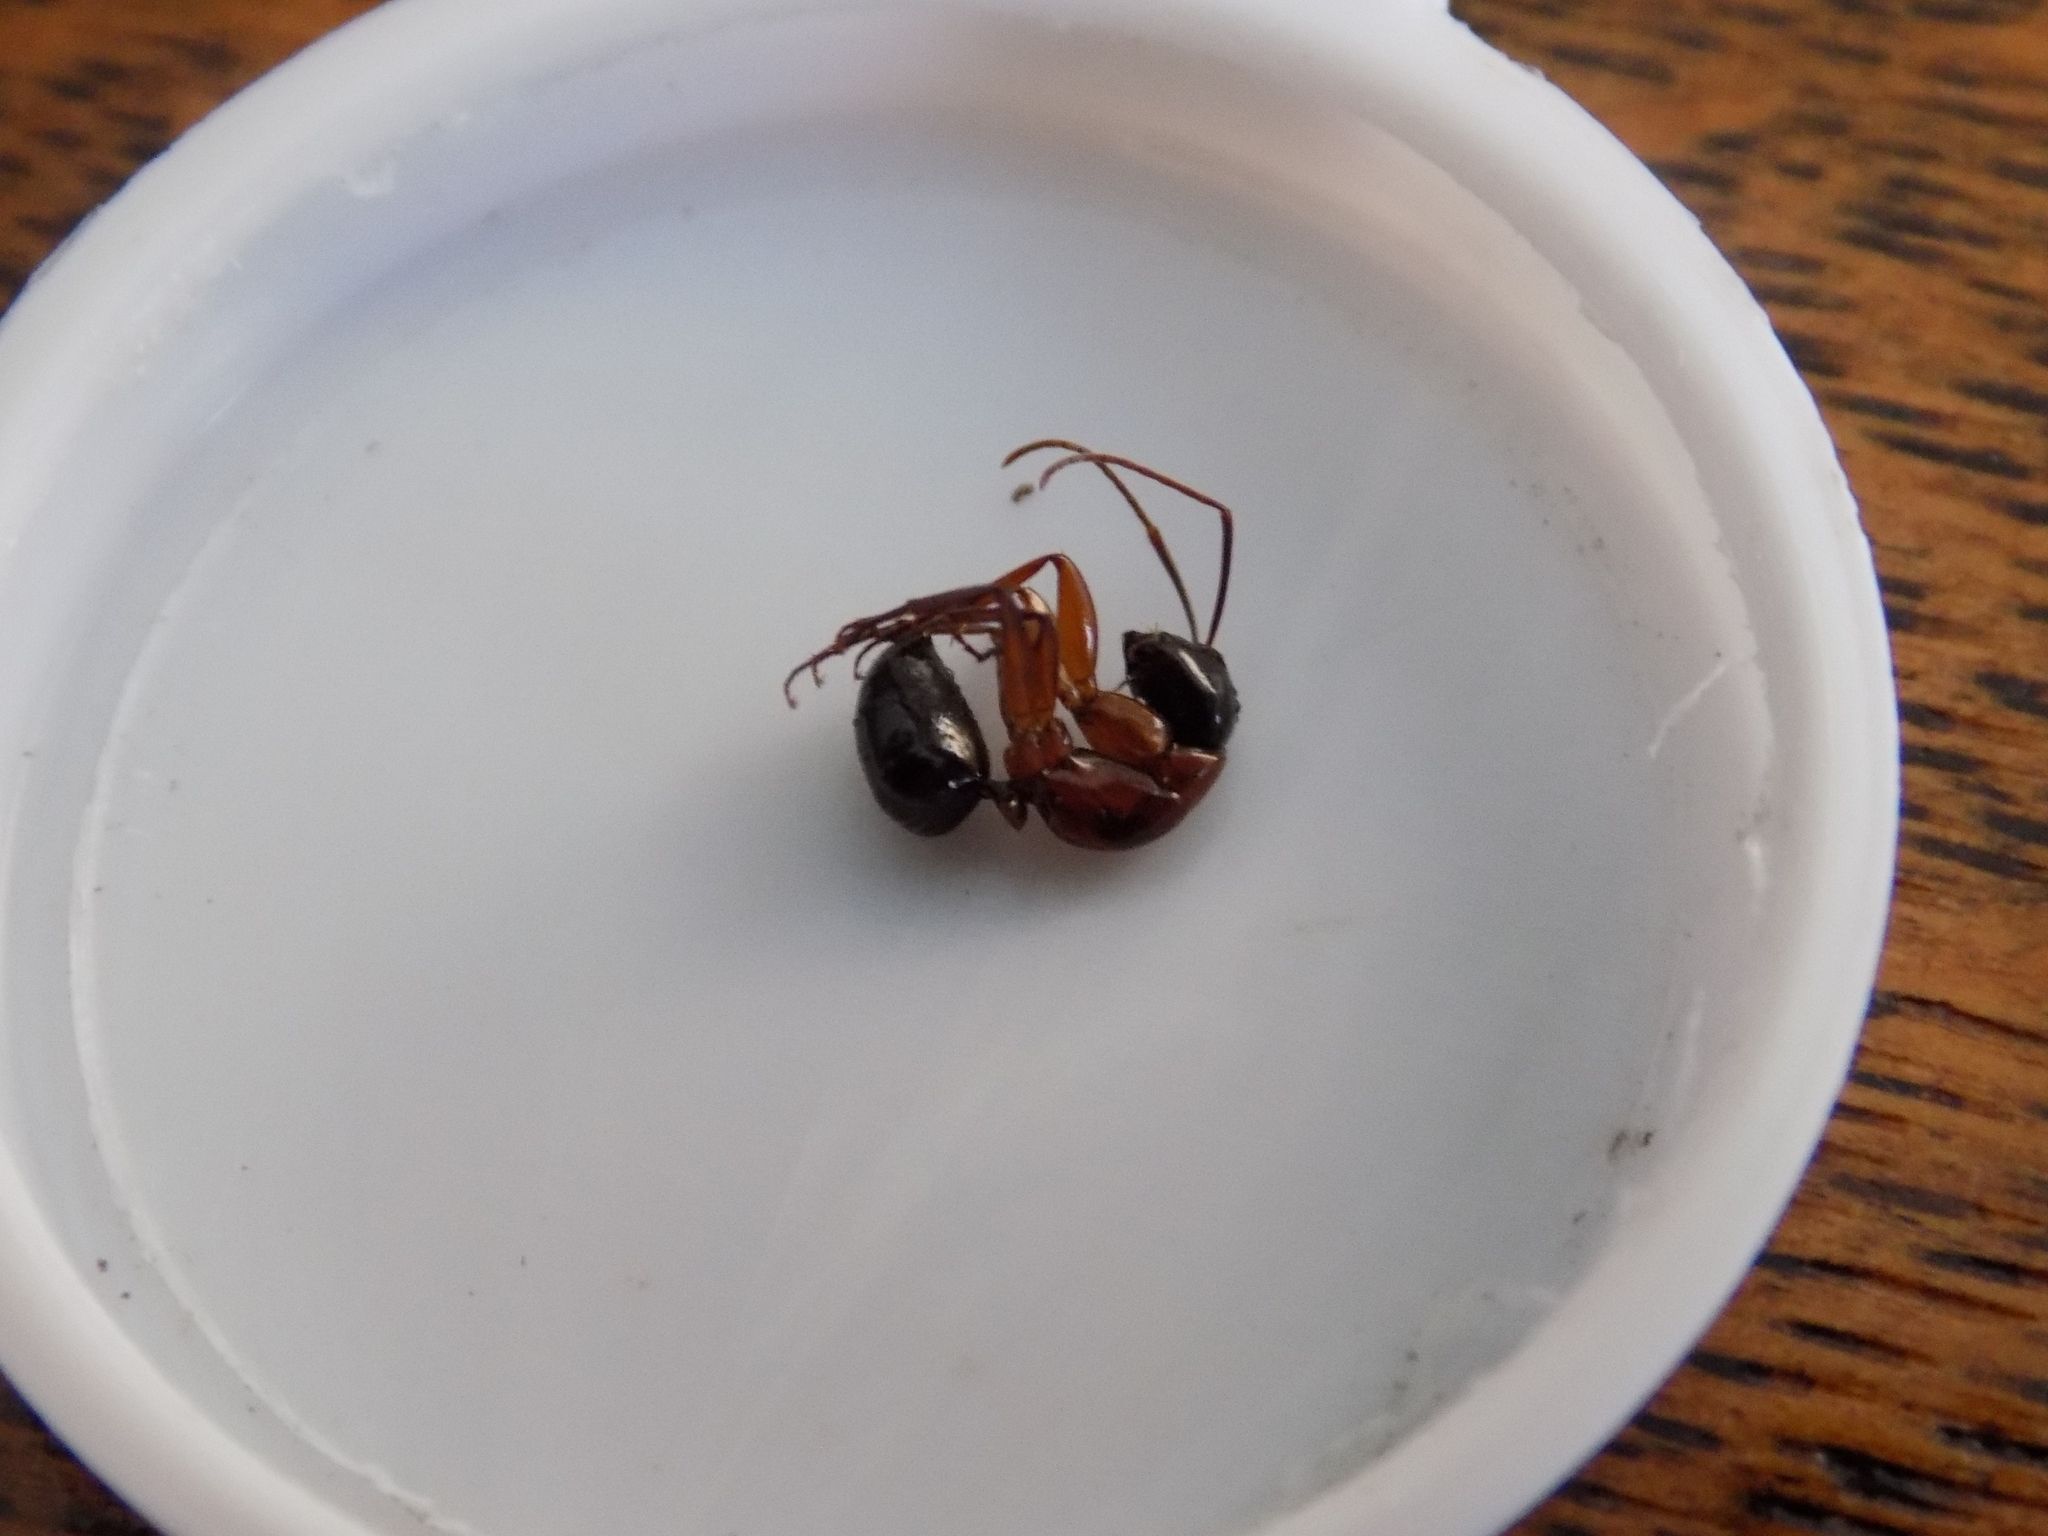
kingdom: Animalia
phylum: Arthropoda
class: Insecta
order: Hymenoptera
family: Formicidae
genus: Camponotus
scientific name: Camponotus texanus
